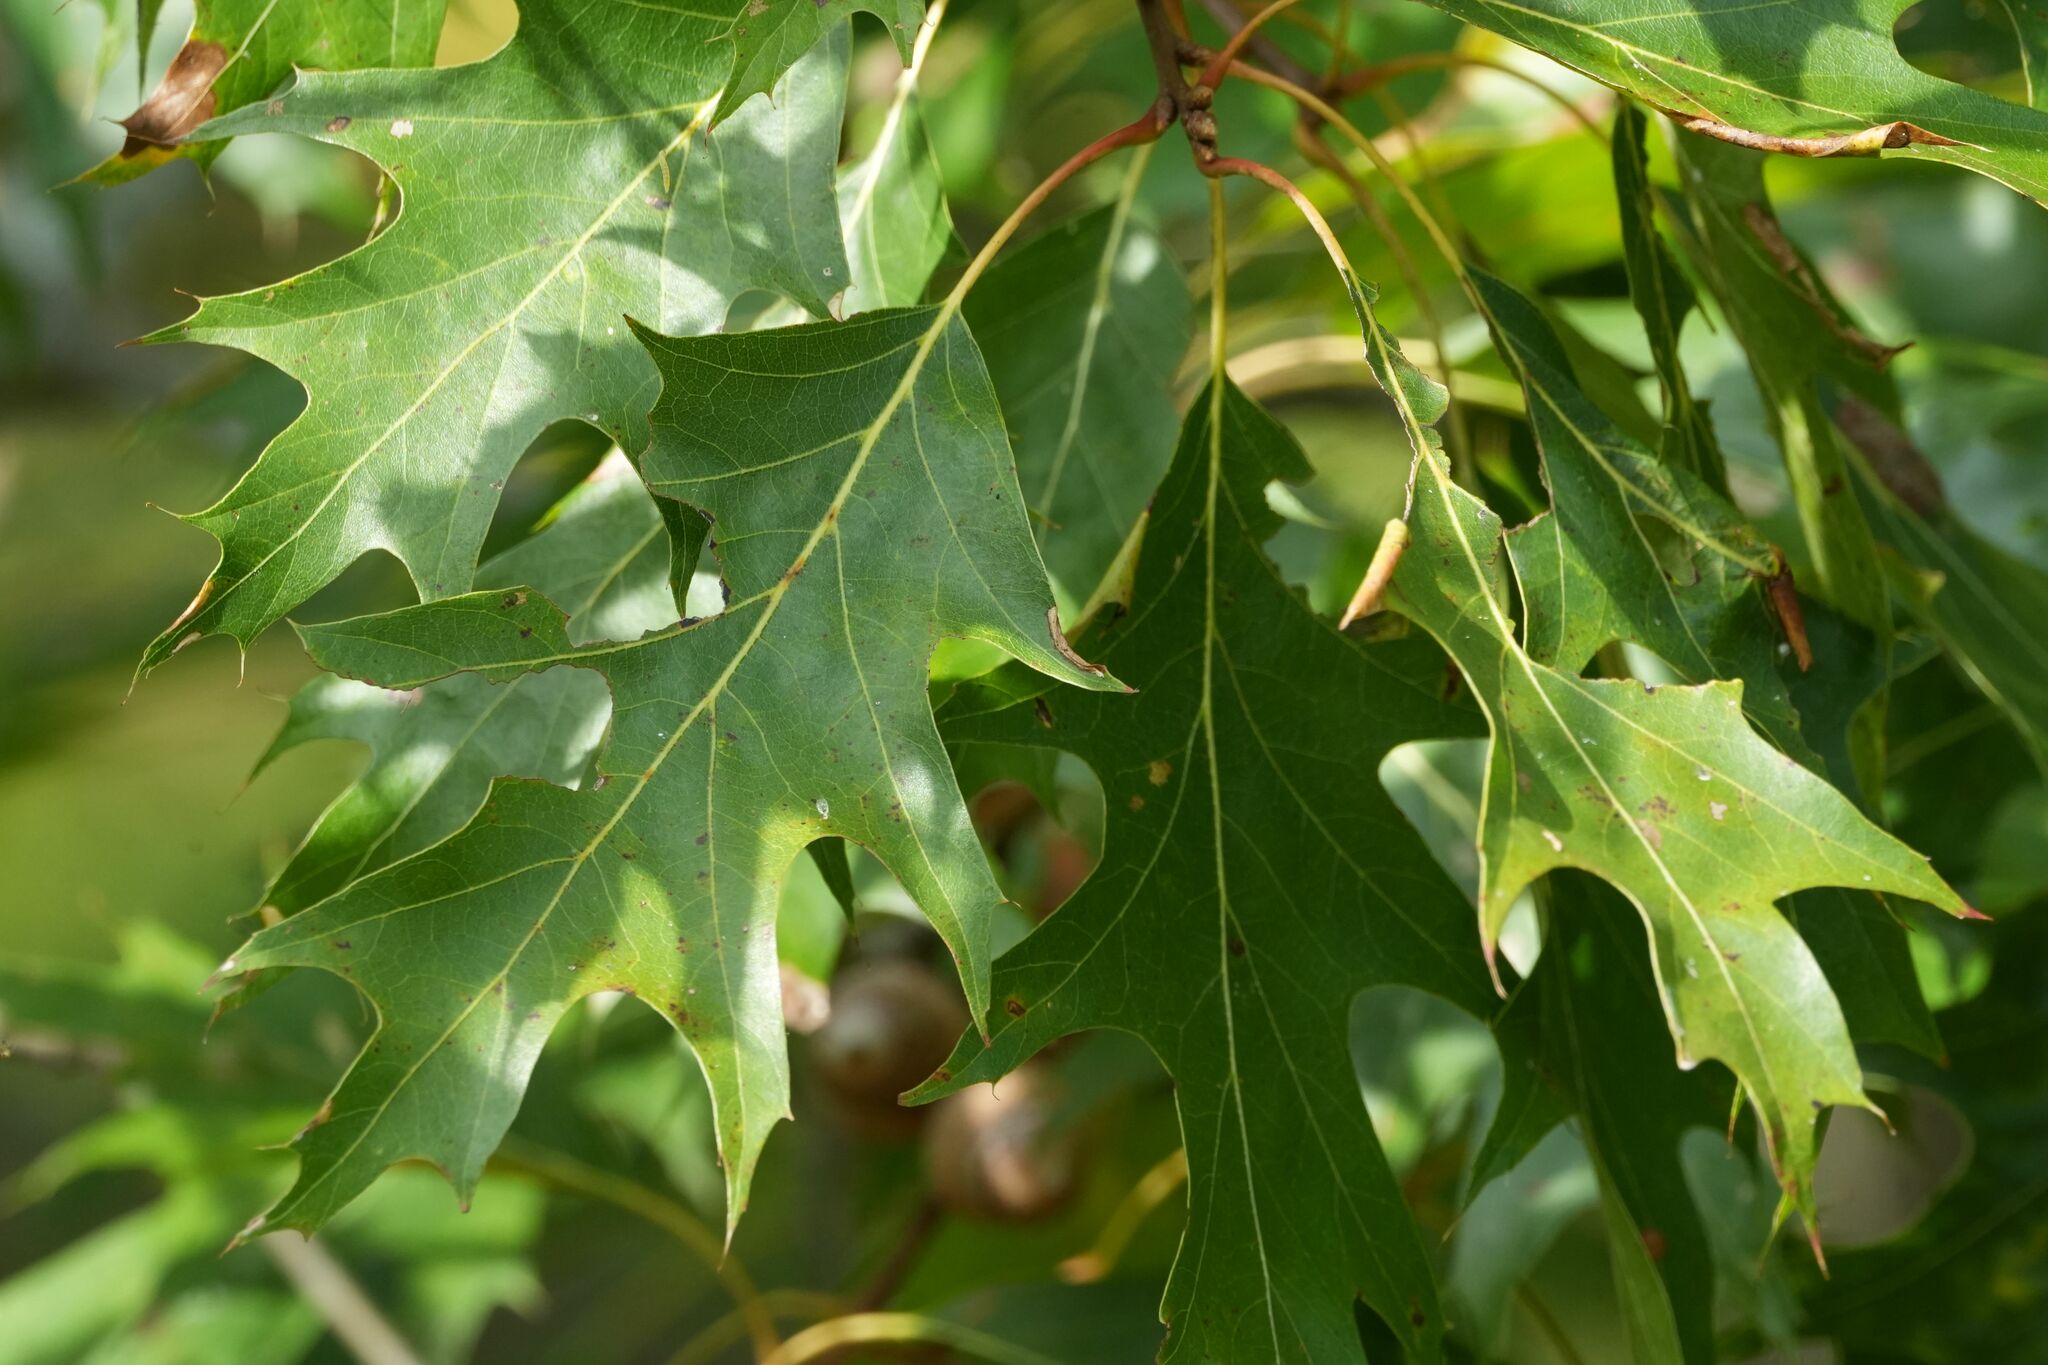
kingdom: Plantae
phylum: Tracheophyta
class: Magnoliopsida
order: Fagales
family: Fagaceae
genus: Quercus
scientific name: Quercus rubra
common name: Red oak
